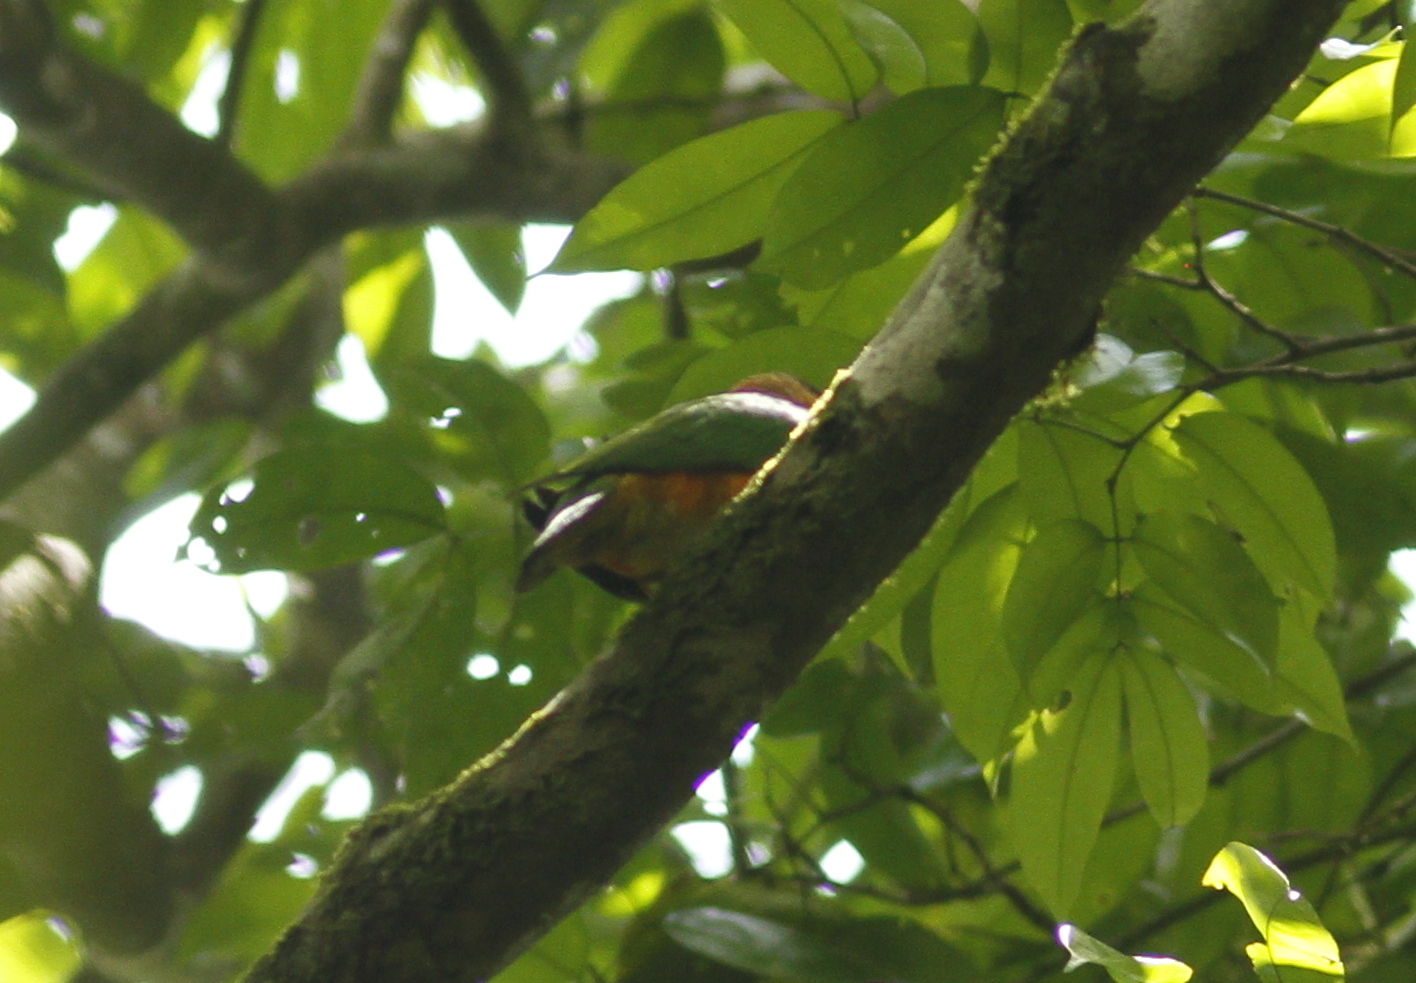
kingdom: Animalia
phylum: Chordata
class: Aves
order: Psittaciformes
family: Psittacidae
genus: Pionites
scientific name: Pionites melanocephalus
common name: Black-headed parrot
